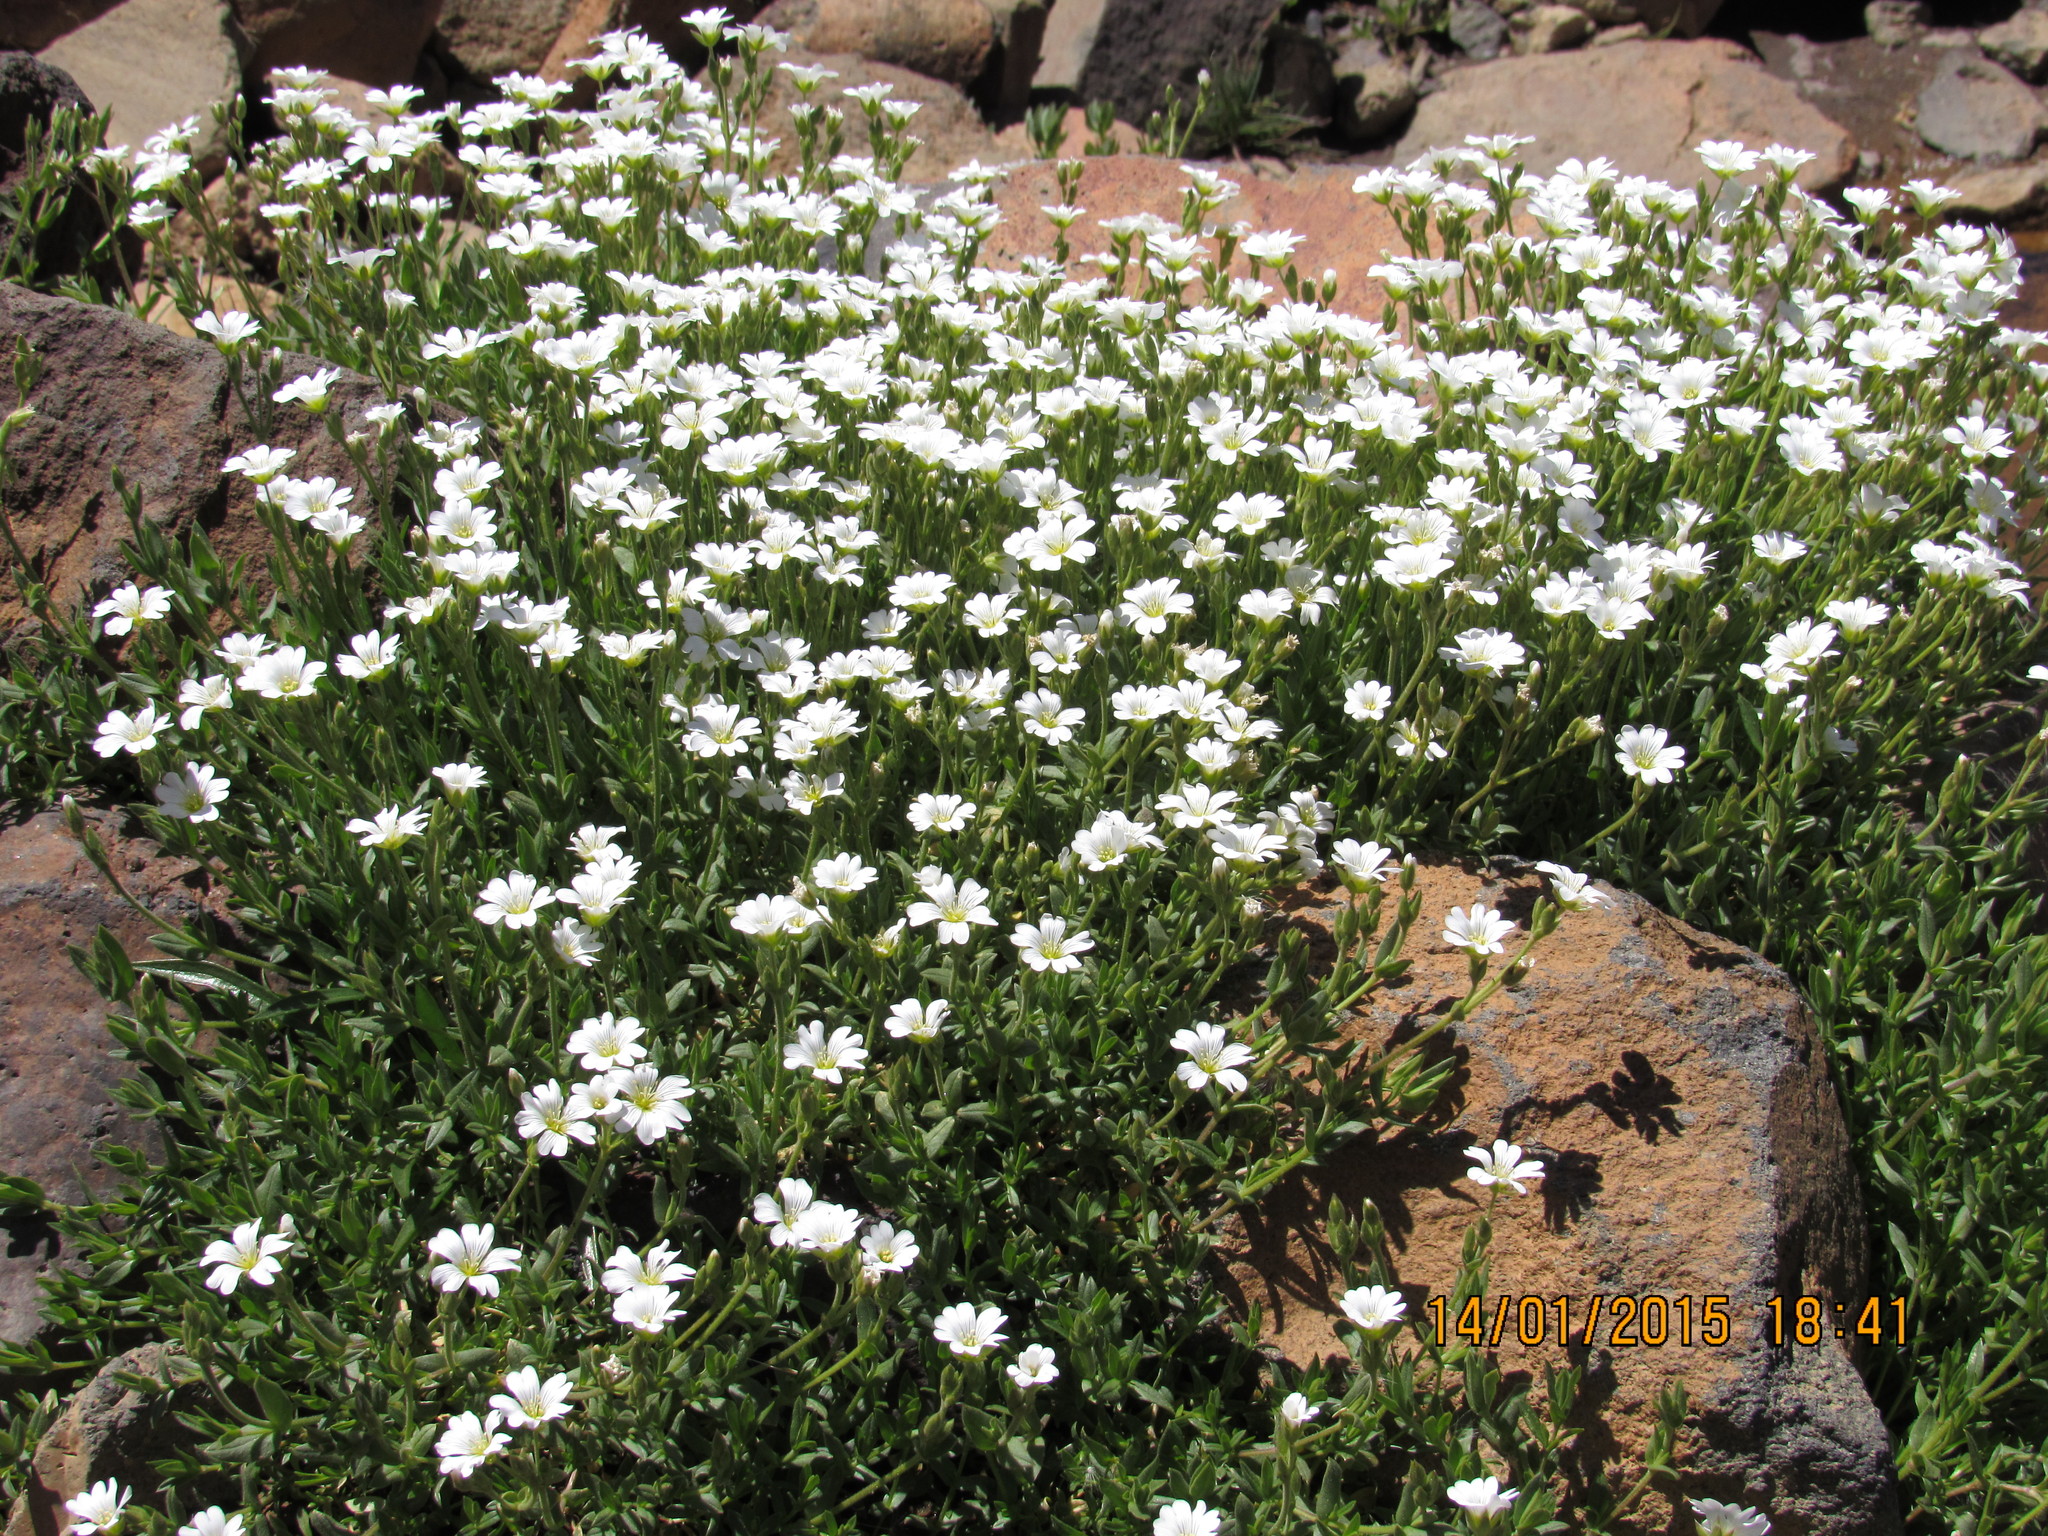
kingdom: Plantae
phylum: Tracheophyta
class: Magnoliopsida
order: Caryophyllales
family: Caryophyllaceae
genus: Cerastium
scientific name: Cerastium arvense
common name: Field mouse-ear
